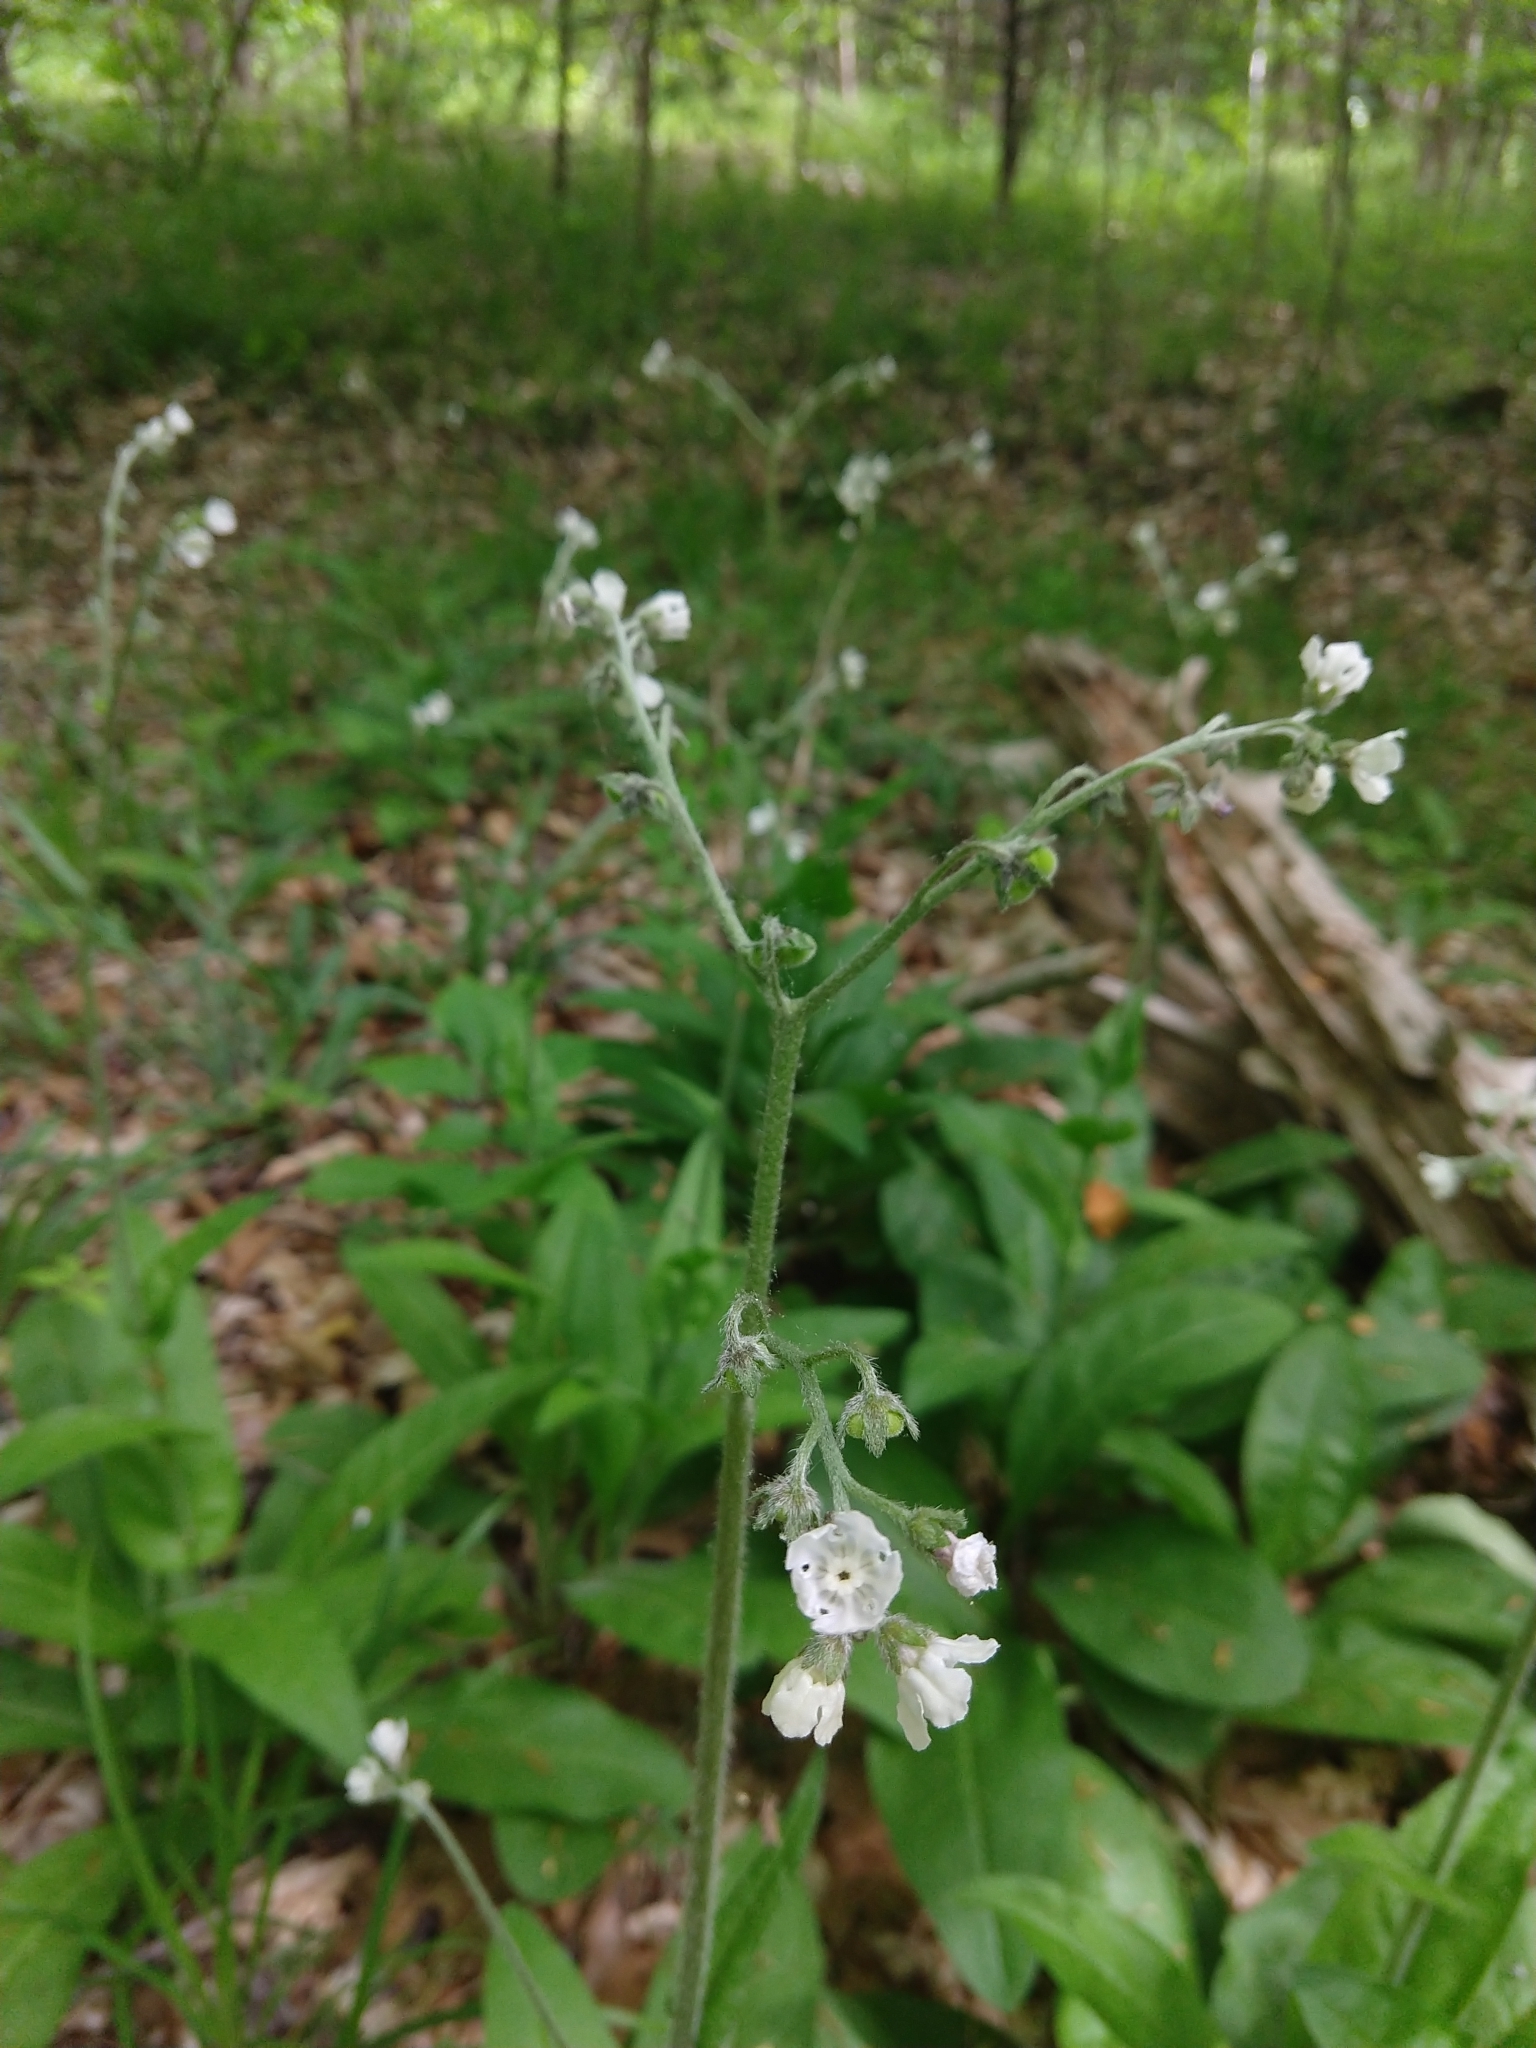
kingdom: Plantae
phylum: Tracheophyta
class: Magnoliopsida
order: Boraginales
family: Boraginaceae
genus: Andersonglossum
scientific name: Andersonglossum virginianum
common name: Wild comfrey
